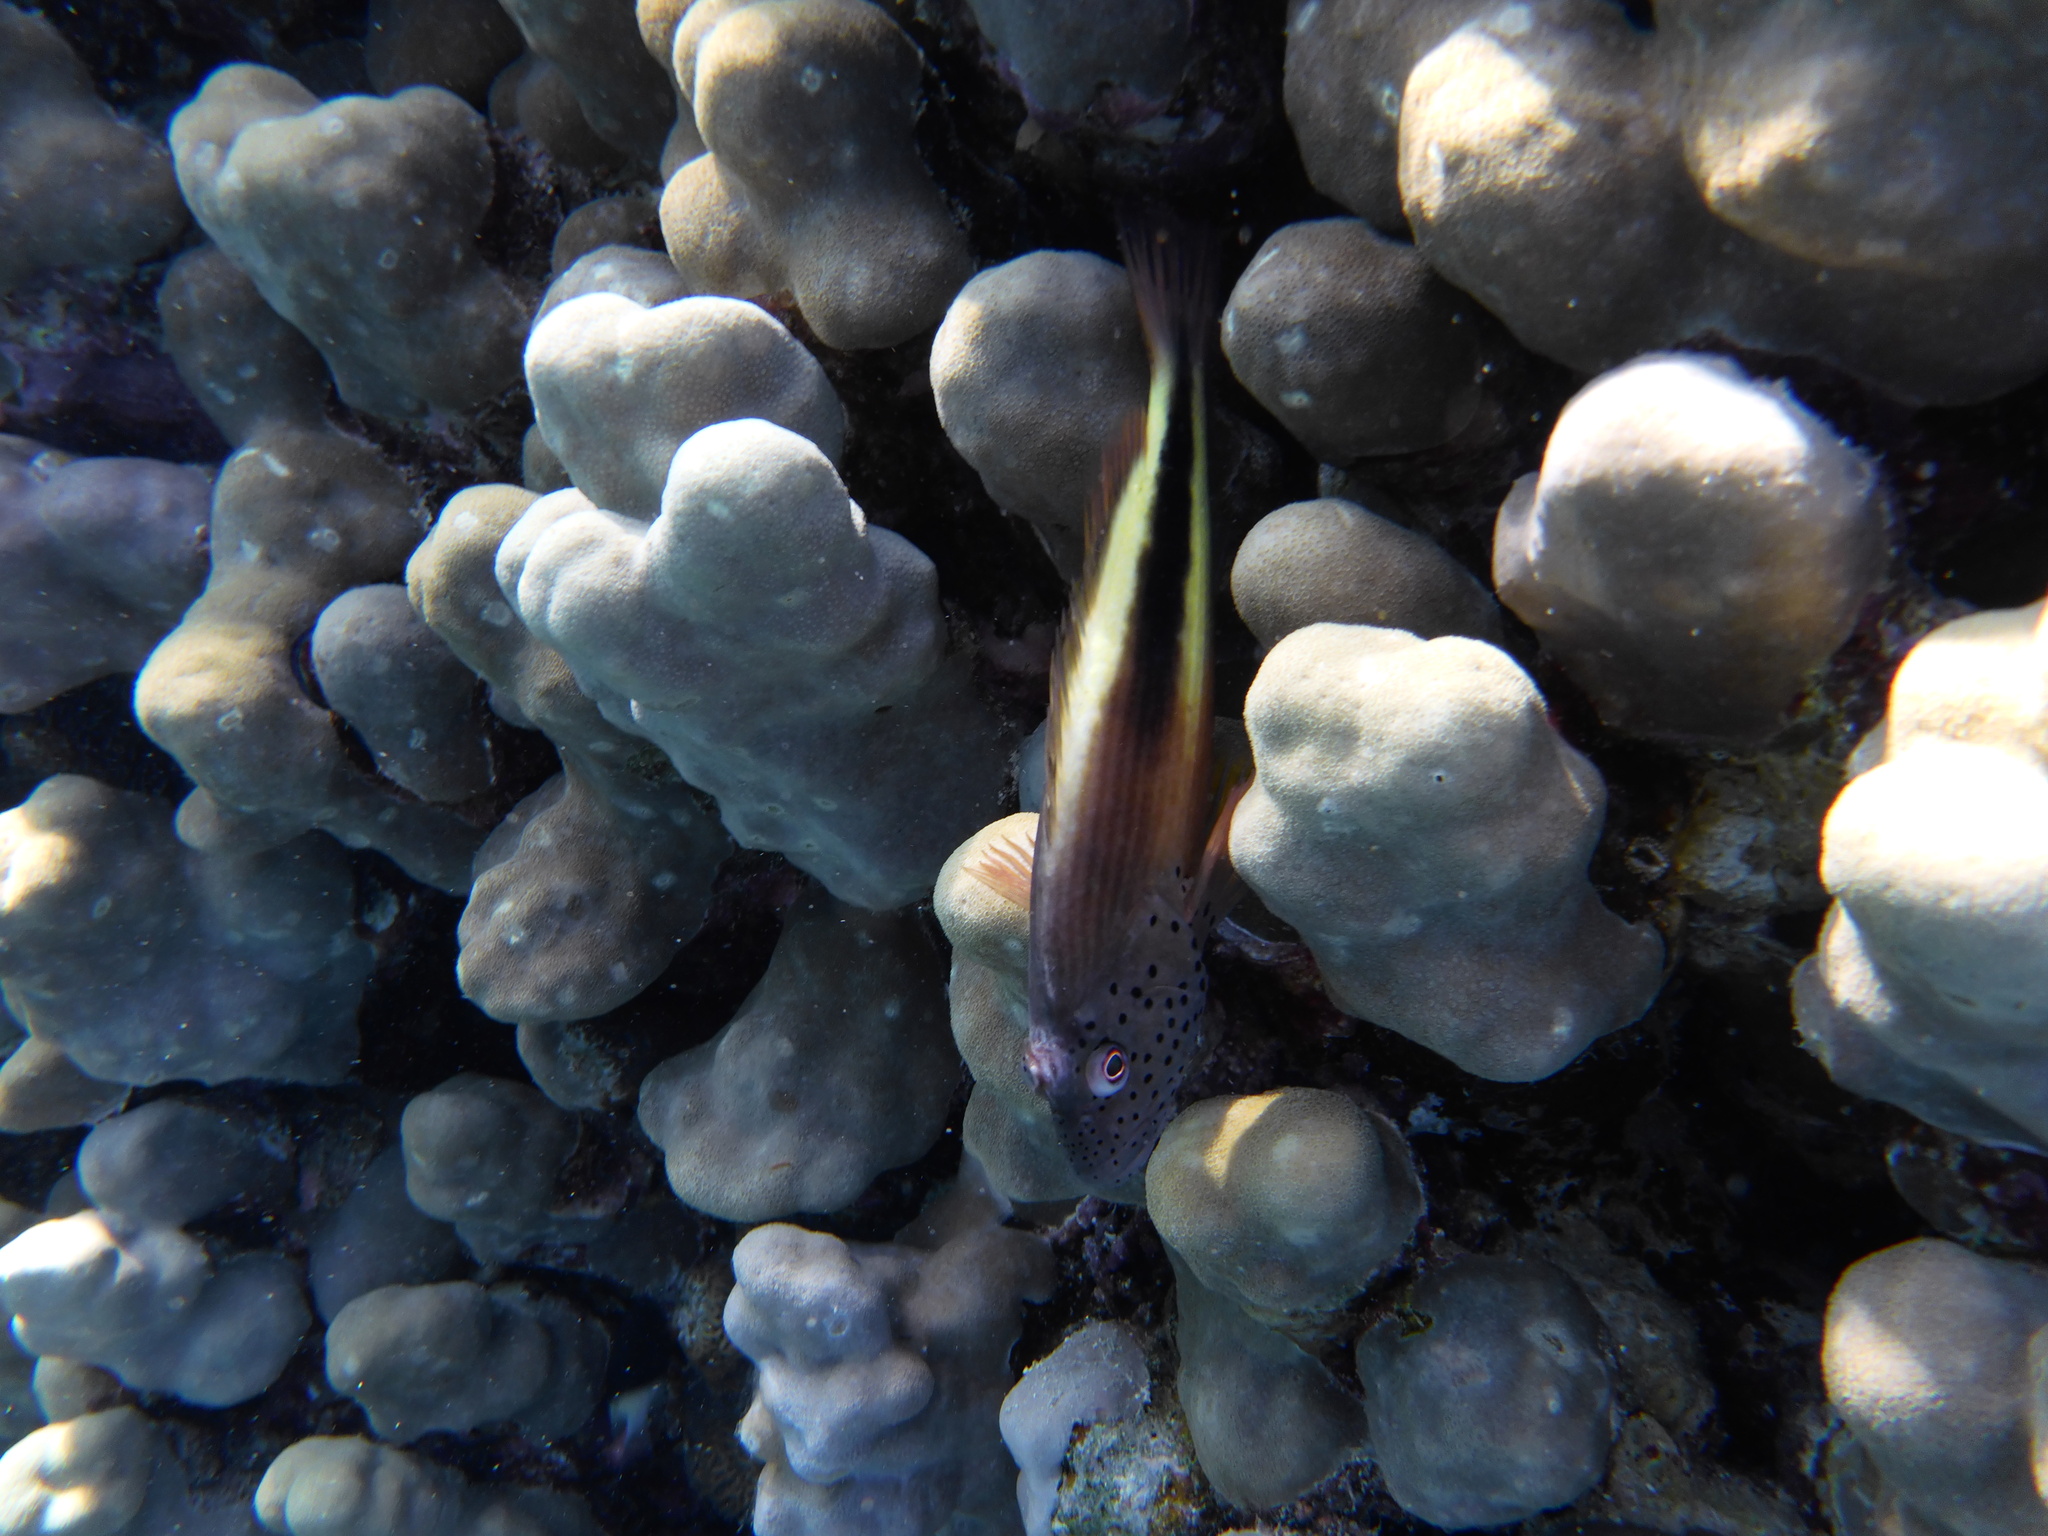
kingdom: Animalia
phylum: Chordata
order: Perciformes
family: Cirrhitidae
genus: Paracirrhites
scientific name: Paracirrhites forsteri
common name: Freckled hawkfish
